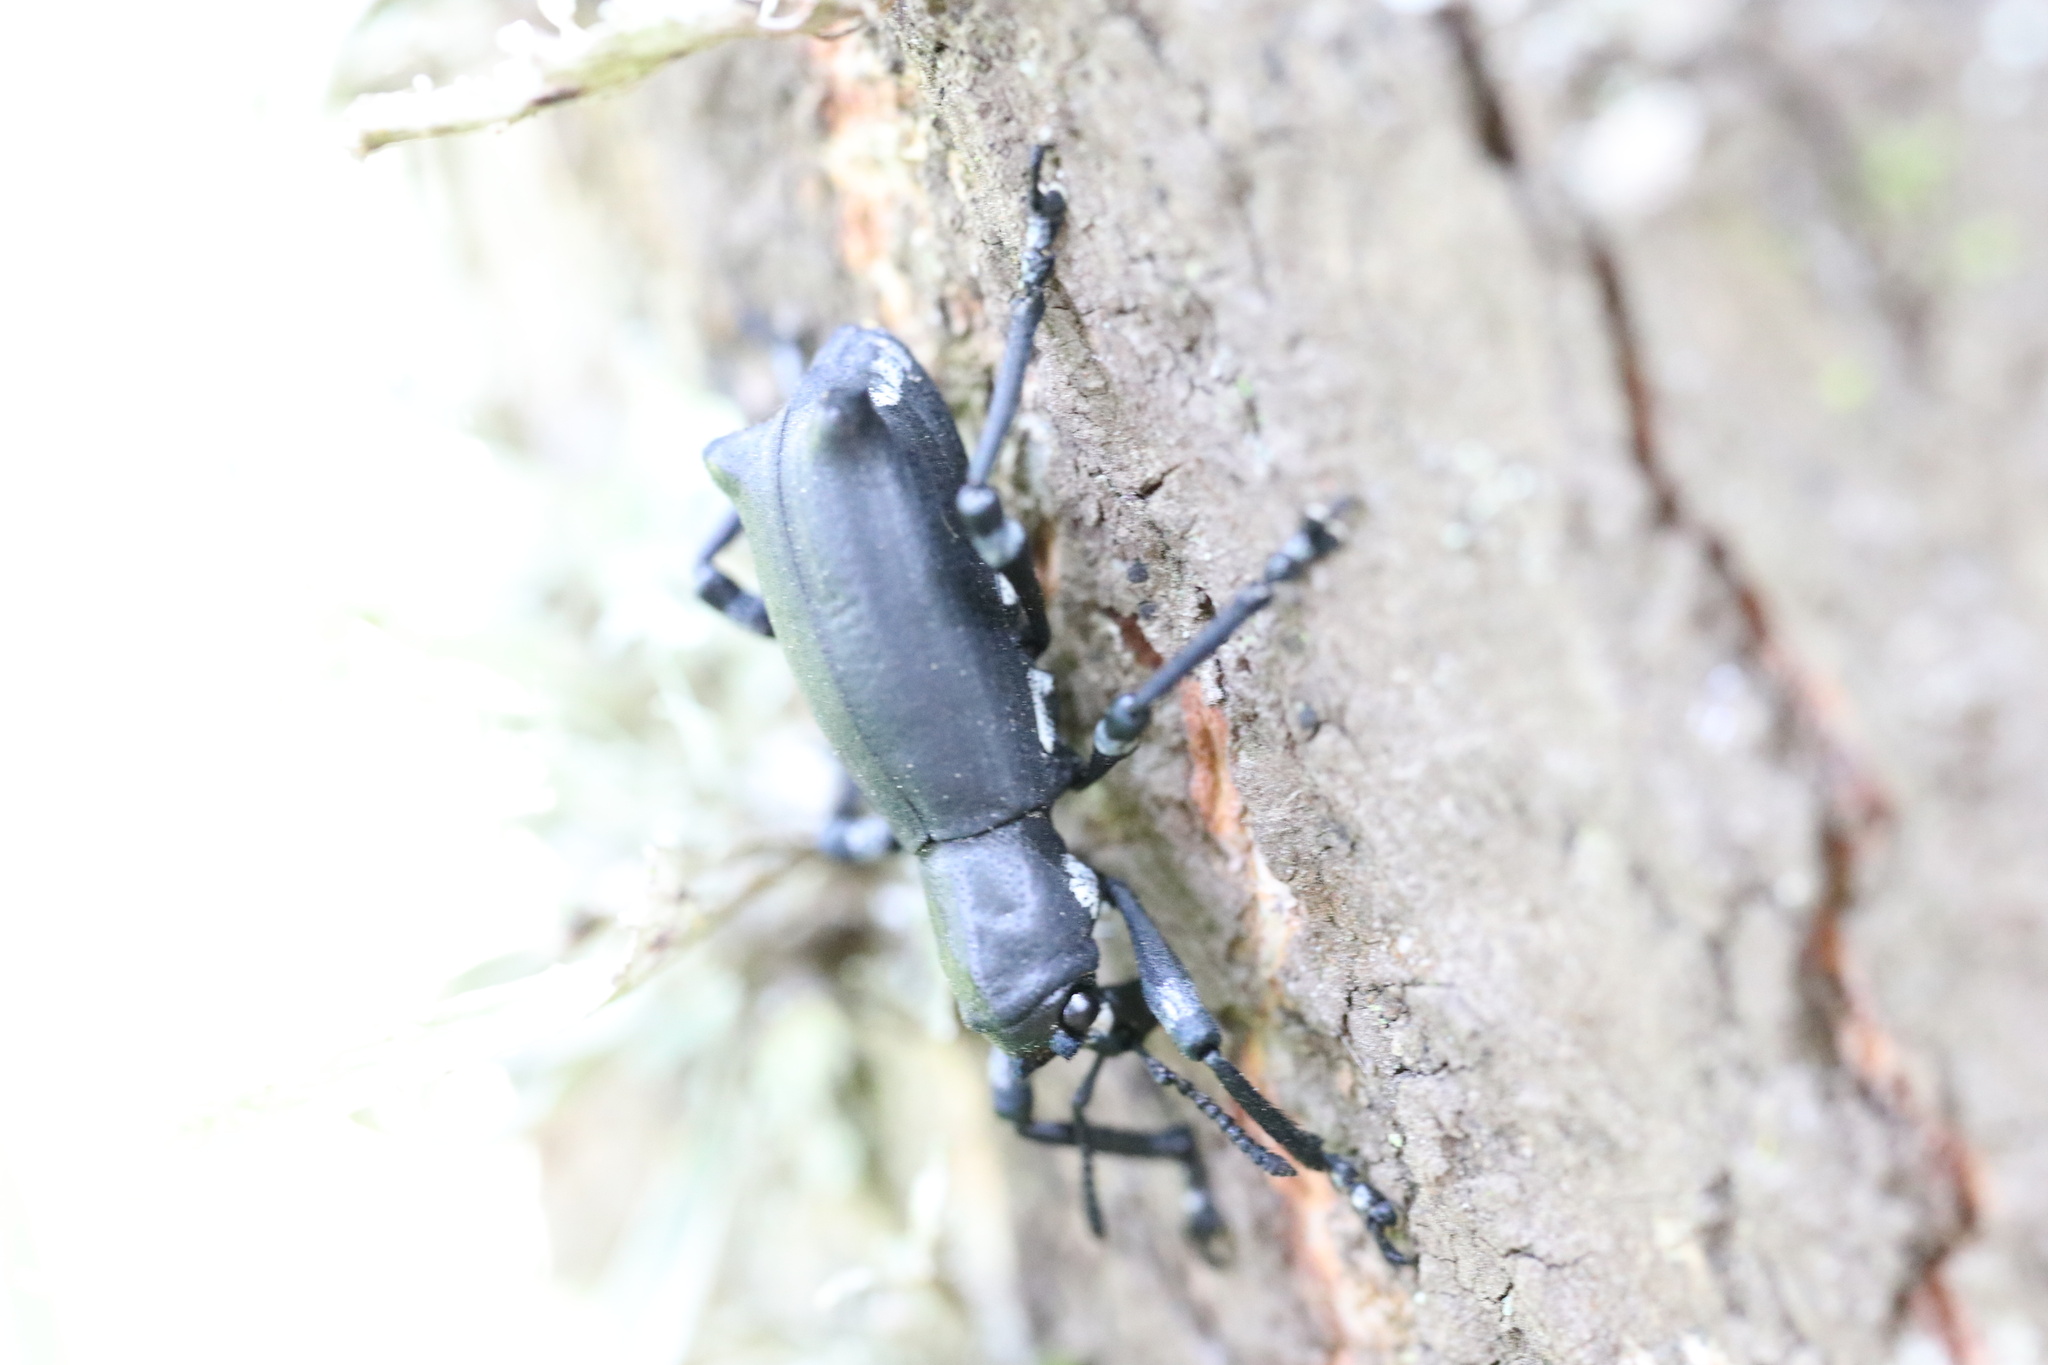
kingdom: Animalia
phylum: Arthropoda
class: Insecta
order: Coleoptera
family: Curculionidae
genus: Aegorhinus
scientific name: Aegorhinus
